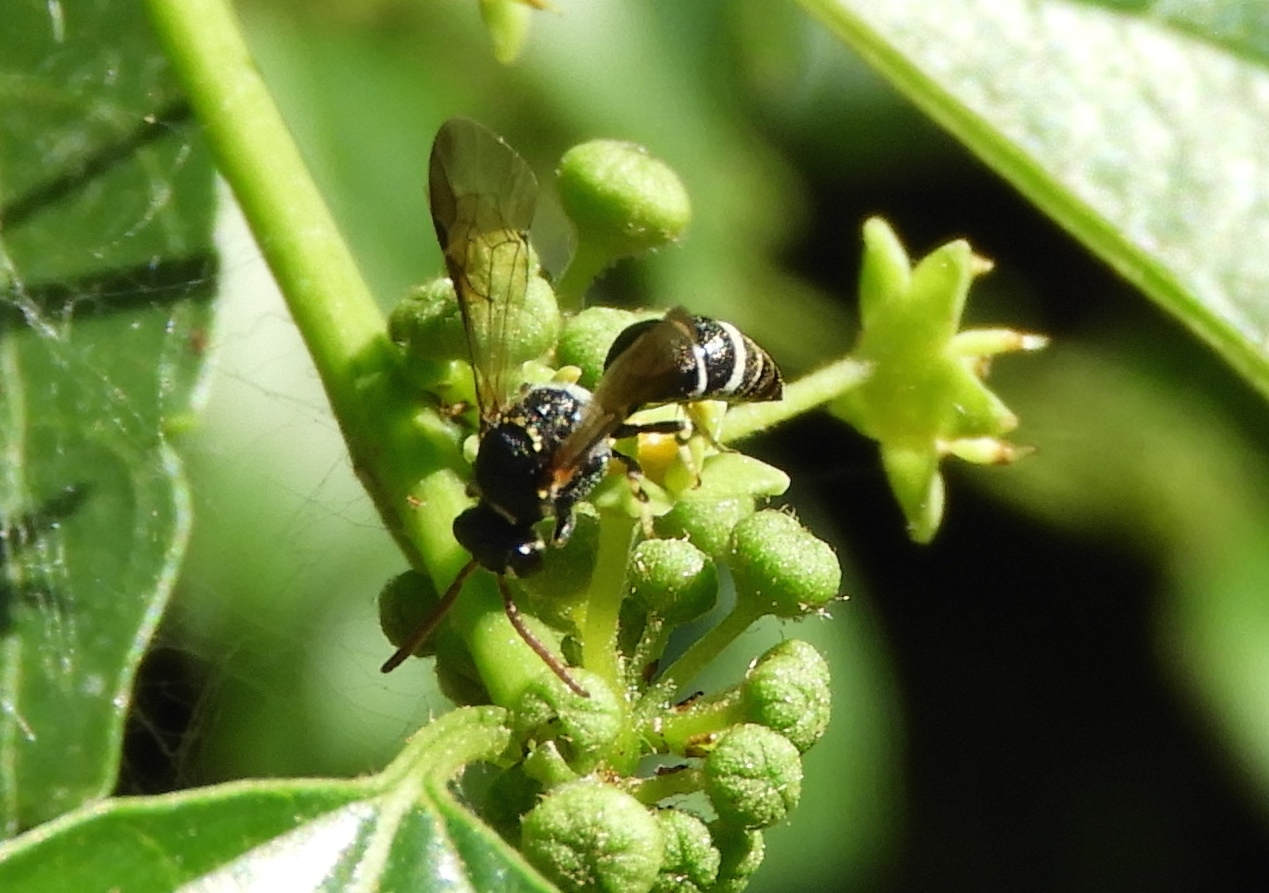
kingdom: Animalia
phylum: Arthropoda
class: Insecta
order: Hymenoptera
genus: Hylaeopsis
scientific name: Hylaeopsis
